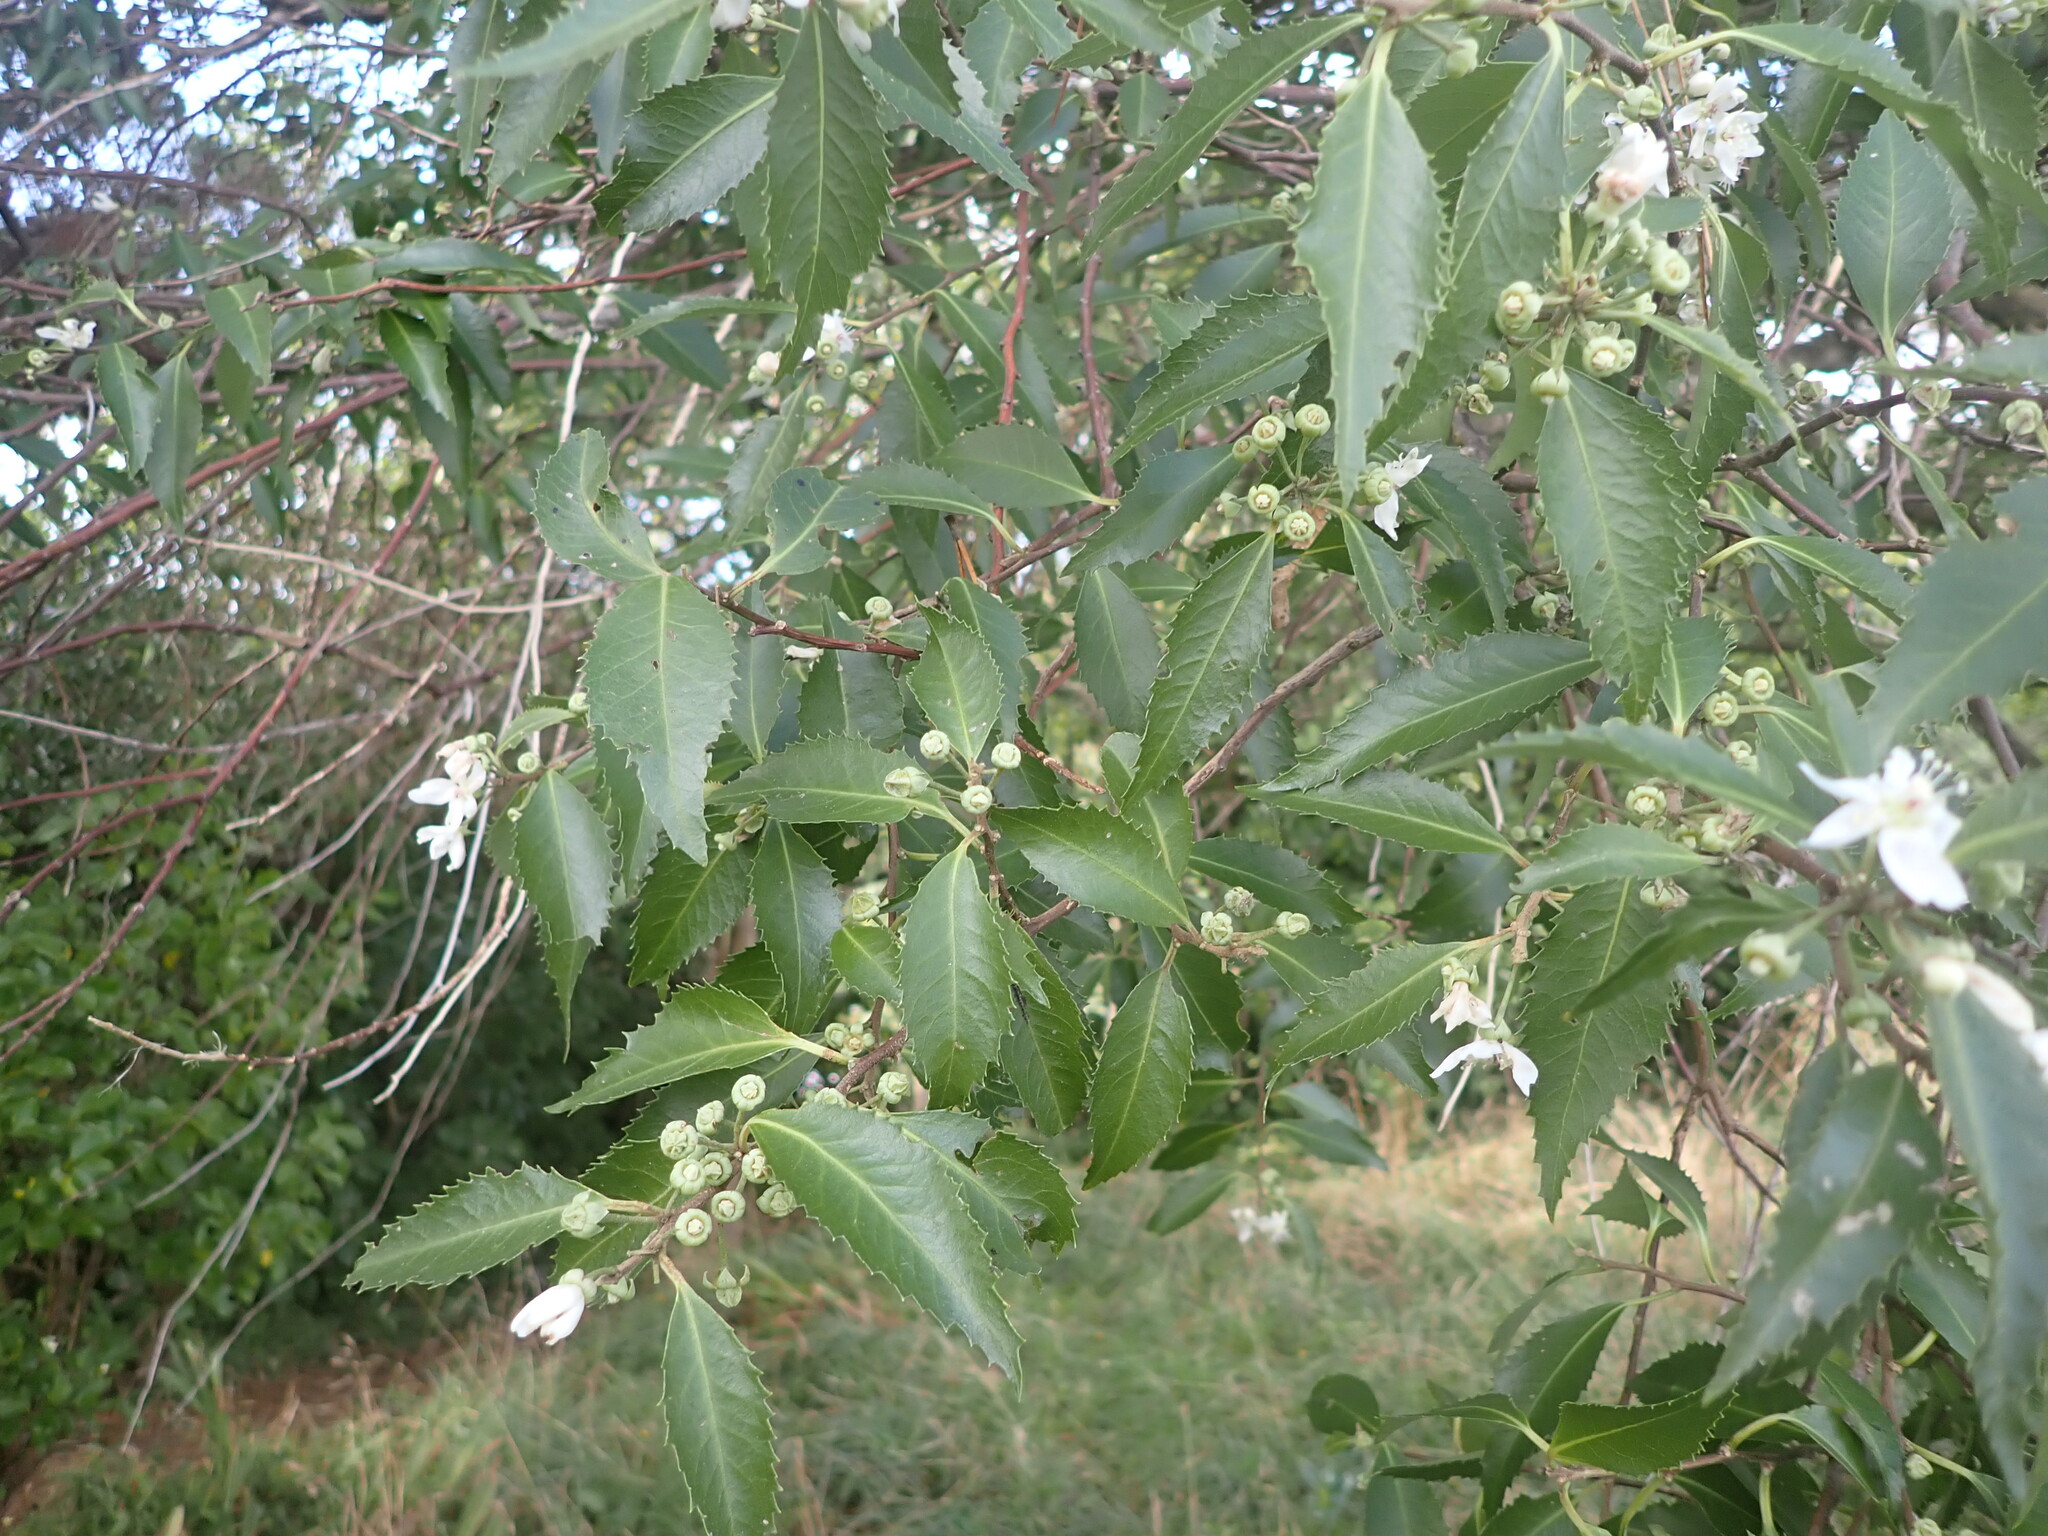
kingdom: Plantae
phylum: Tracheophyta
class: Magnoliopsida
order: Malvales
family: Malvaceae
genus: Hoheria
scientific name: Hoheria sexstylosa
